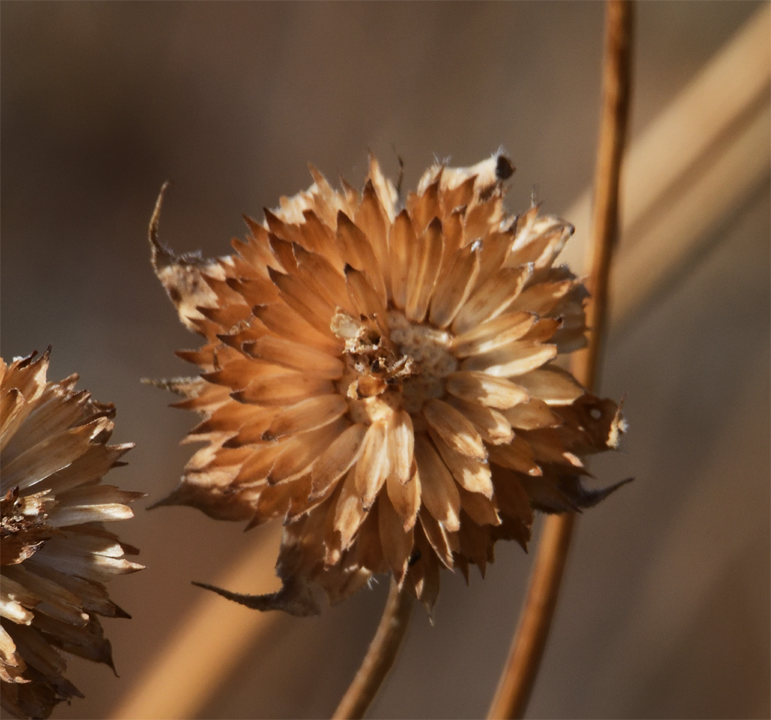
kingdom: Plantae
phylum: Tracheophyta
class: Magnoliopsida
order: Asterales
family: Asteraceae
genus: Bahiopsis
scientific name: Bahiopsis parishii
